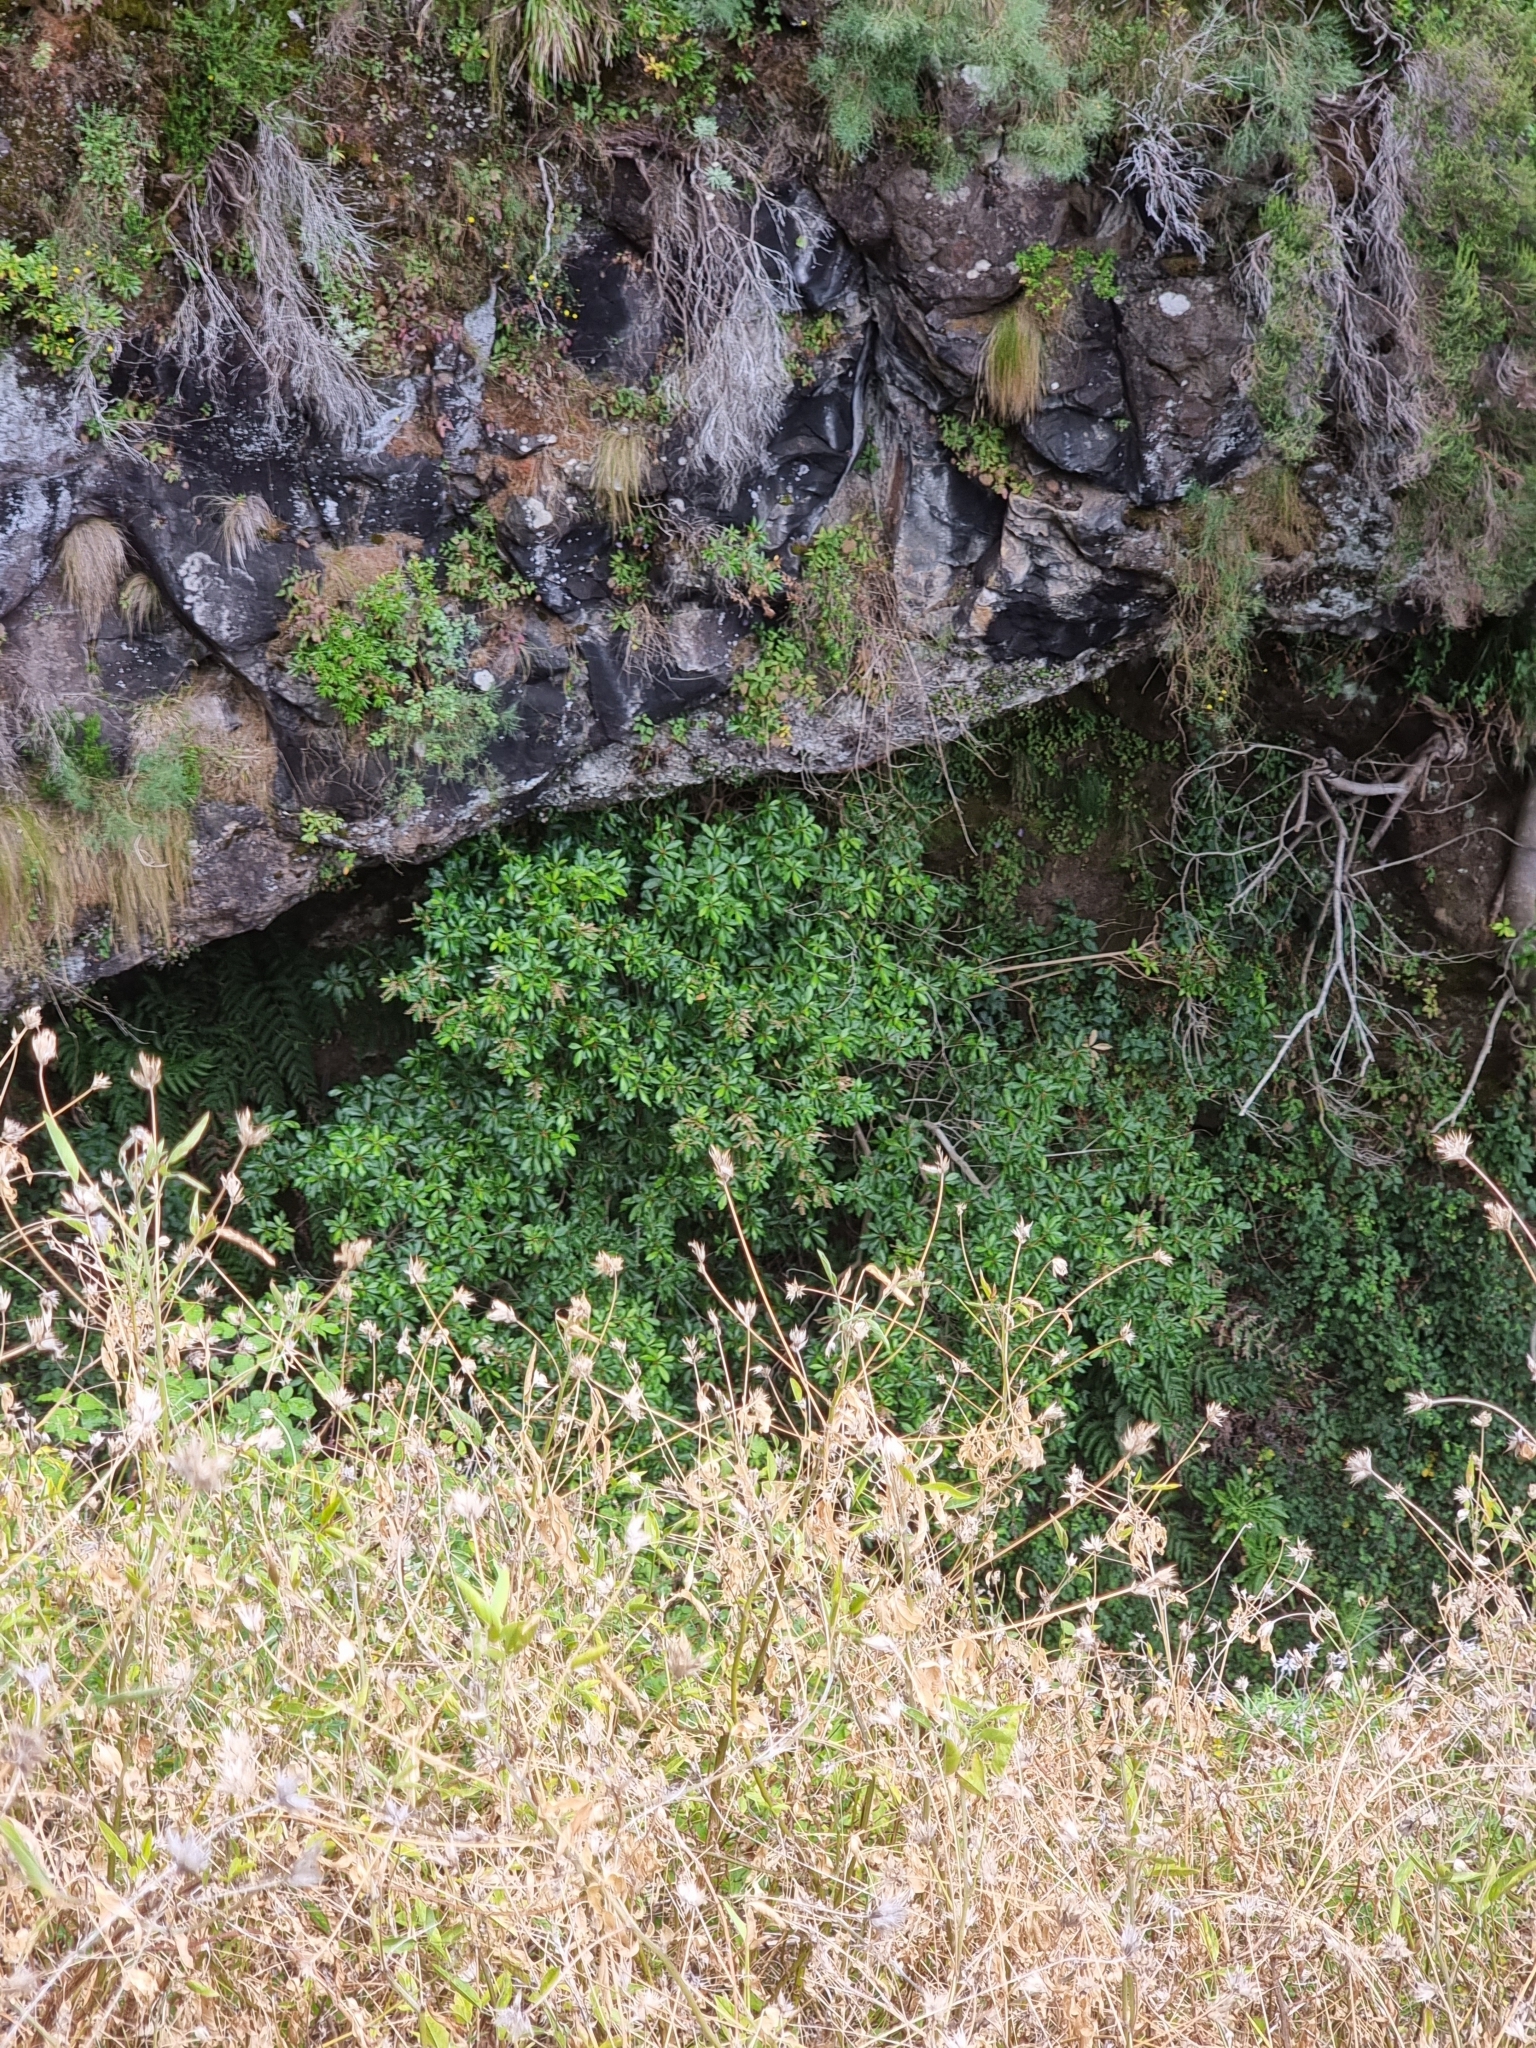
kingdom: Plantae
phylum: Tracheophyta
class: Magnoliopsida
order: Ericales
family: Clethraceae
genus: Clethra
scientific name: Clethra arborea
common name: Lily-of-the-valley-tree
